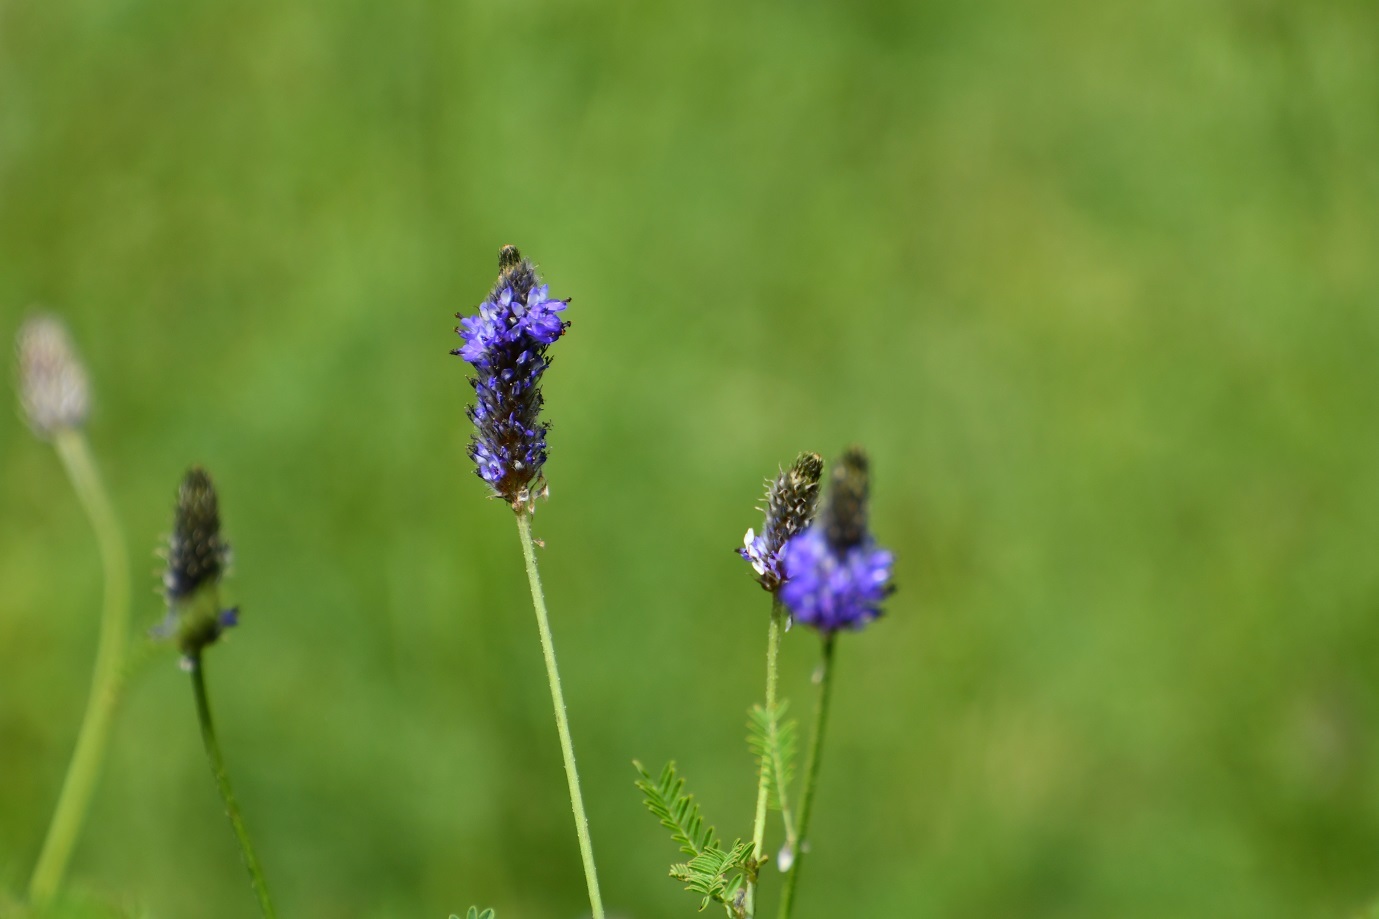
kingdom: Plantae
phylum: Tracheophyta
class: Magnoliopsida
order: Fabales
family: Fabaceae
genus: Dalea
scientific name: Dalea leporina
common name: Foxtail dalea
